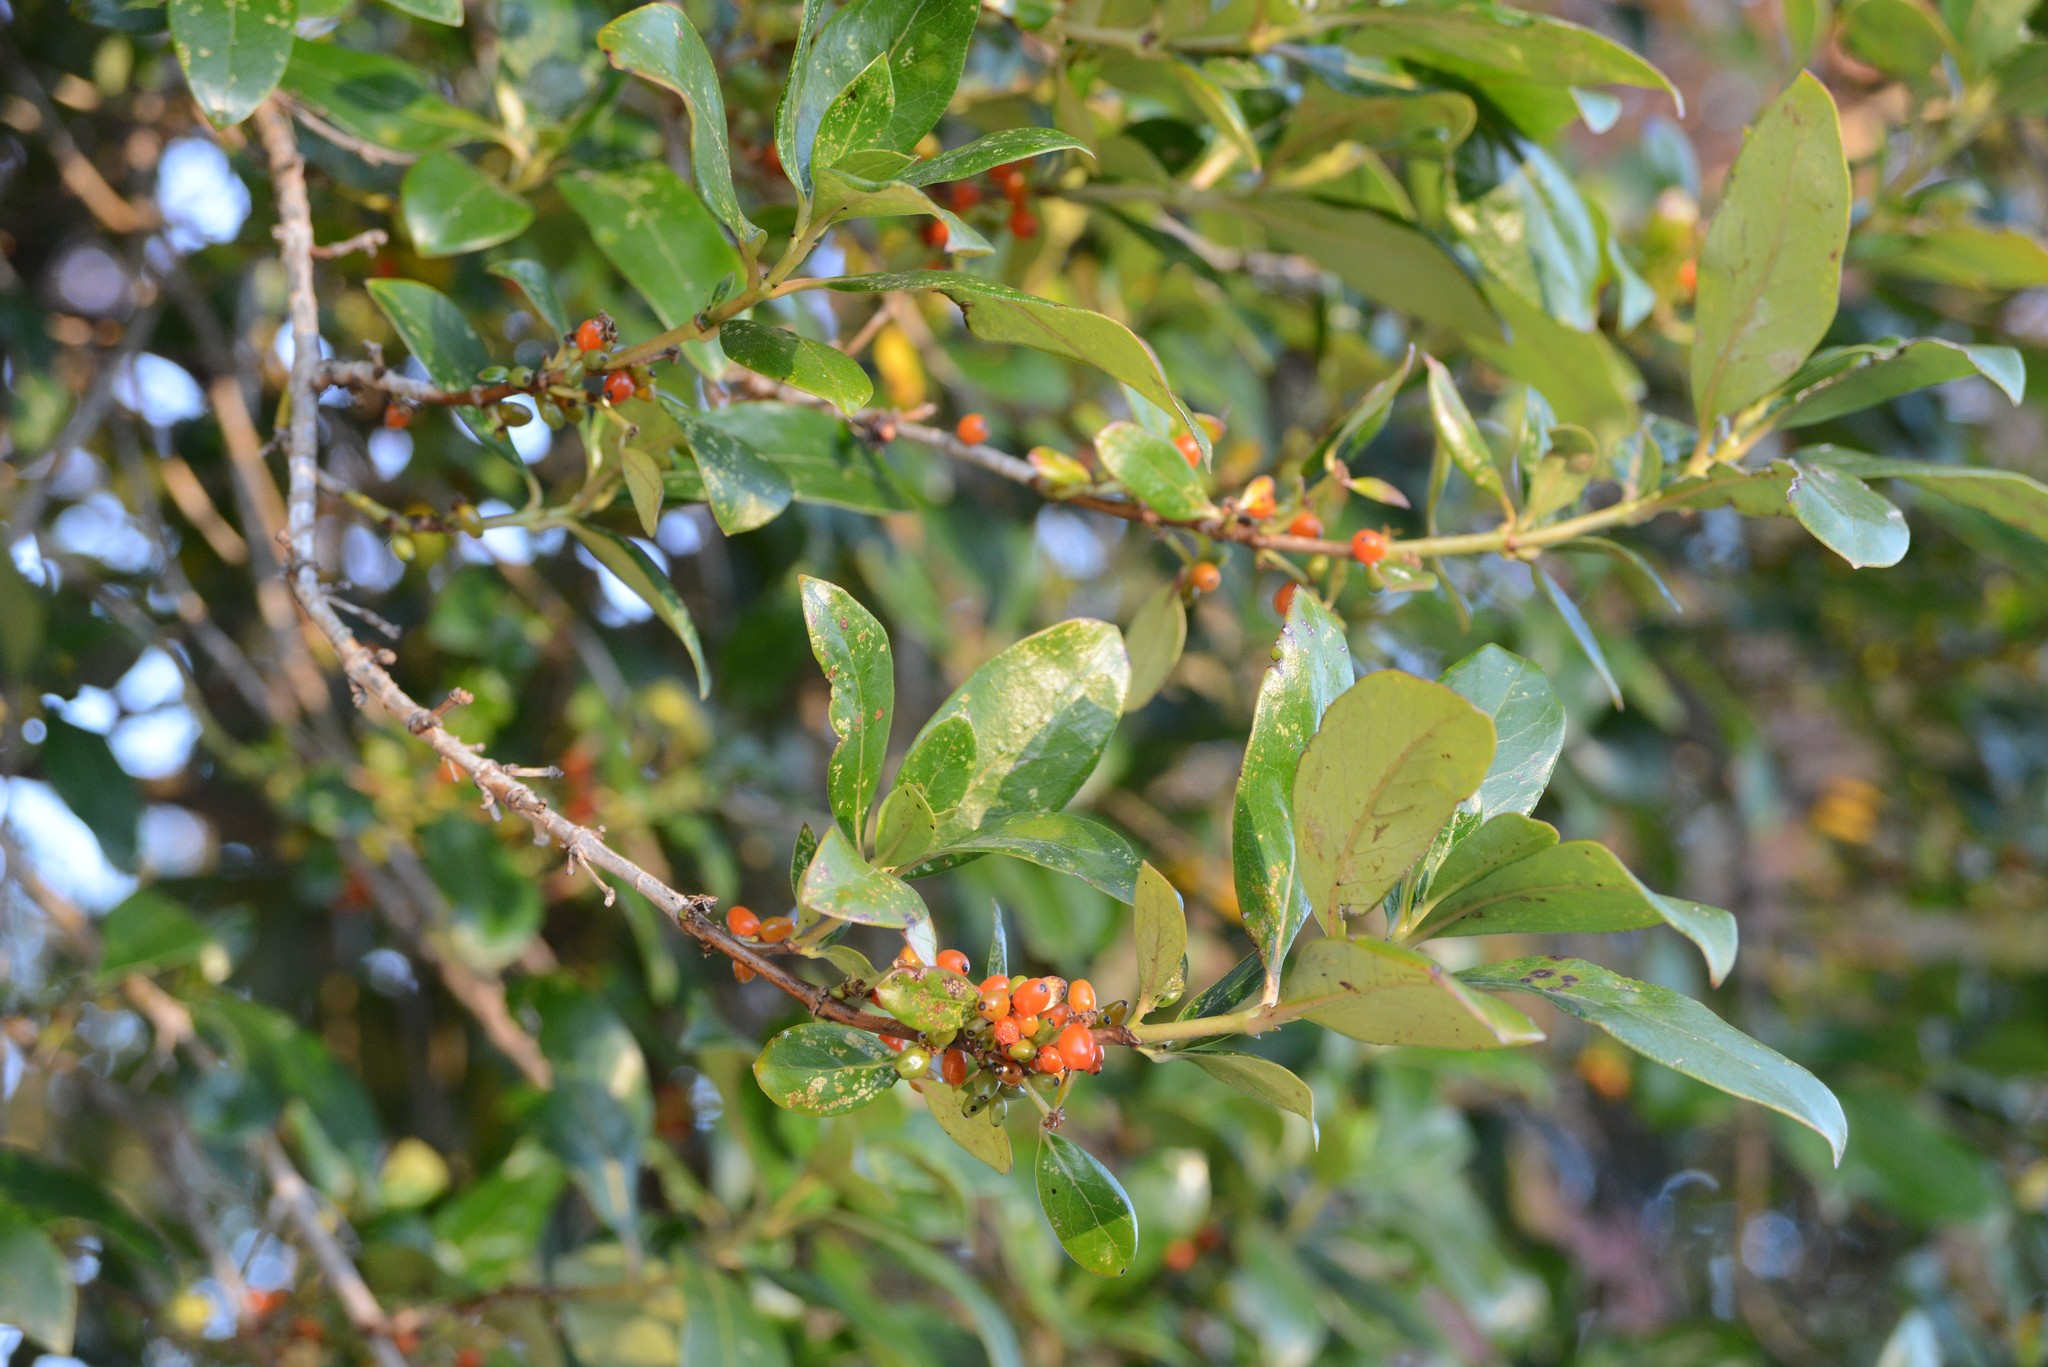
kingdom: Plantae
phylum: Tracheophyta
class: Magnoliopsida
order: Gentianales
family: Rubiaceae
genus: Coprosma
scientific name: Coprosma robusta
